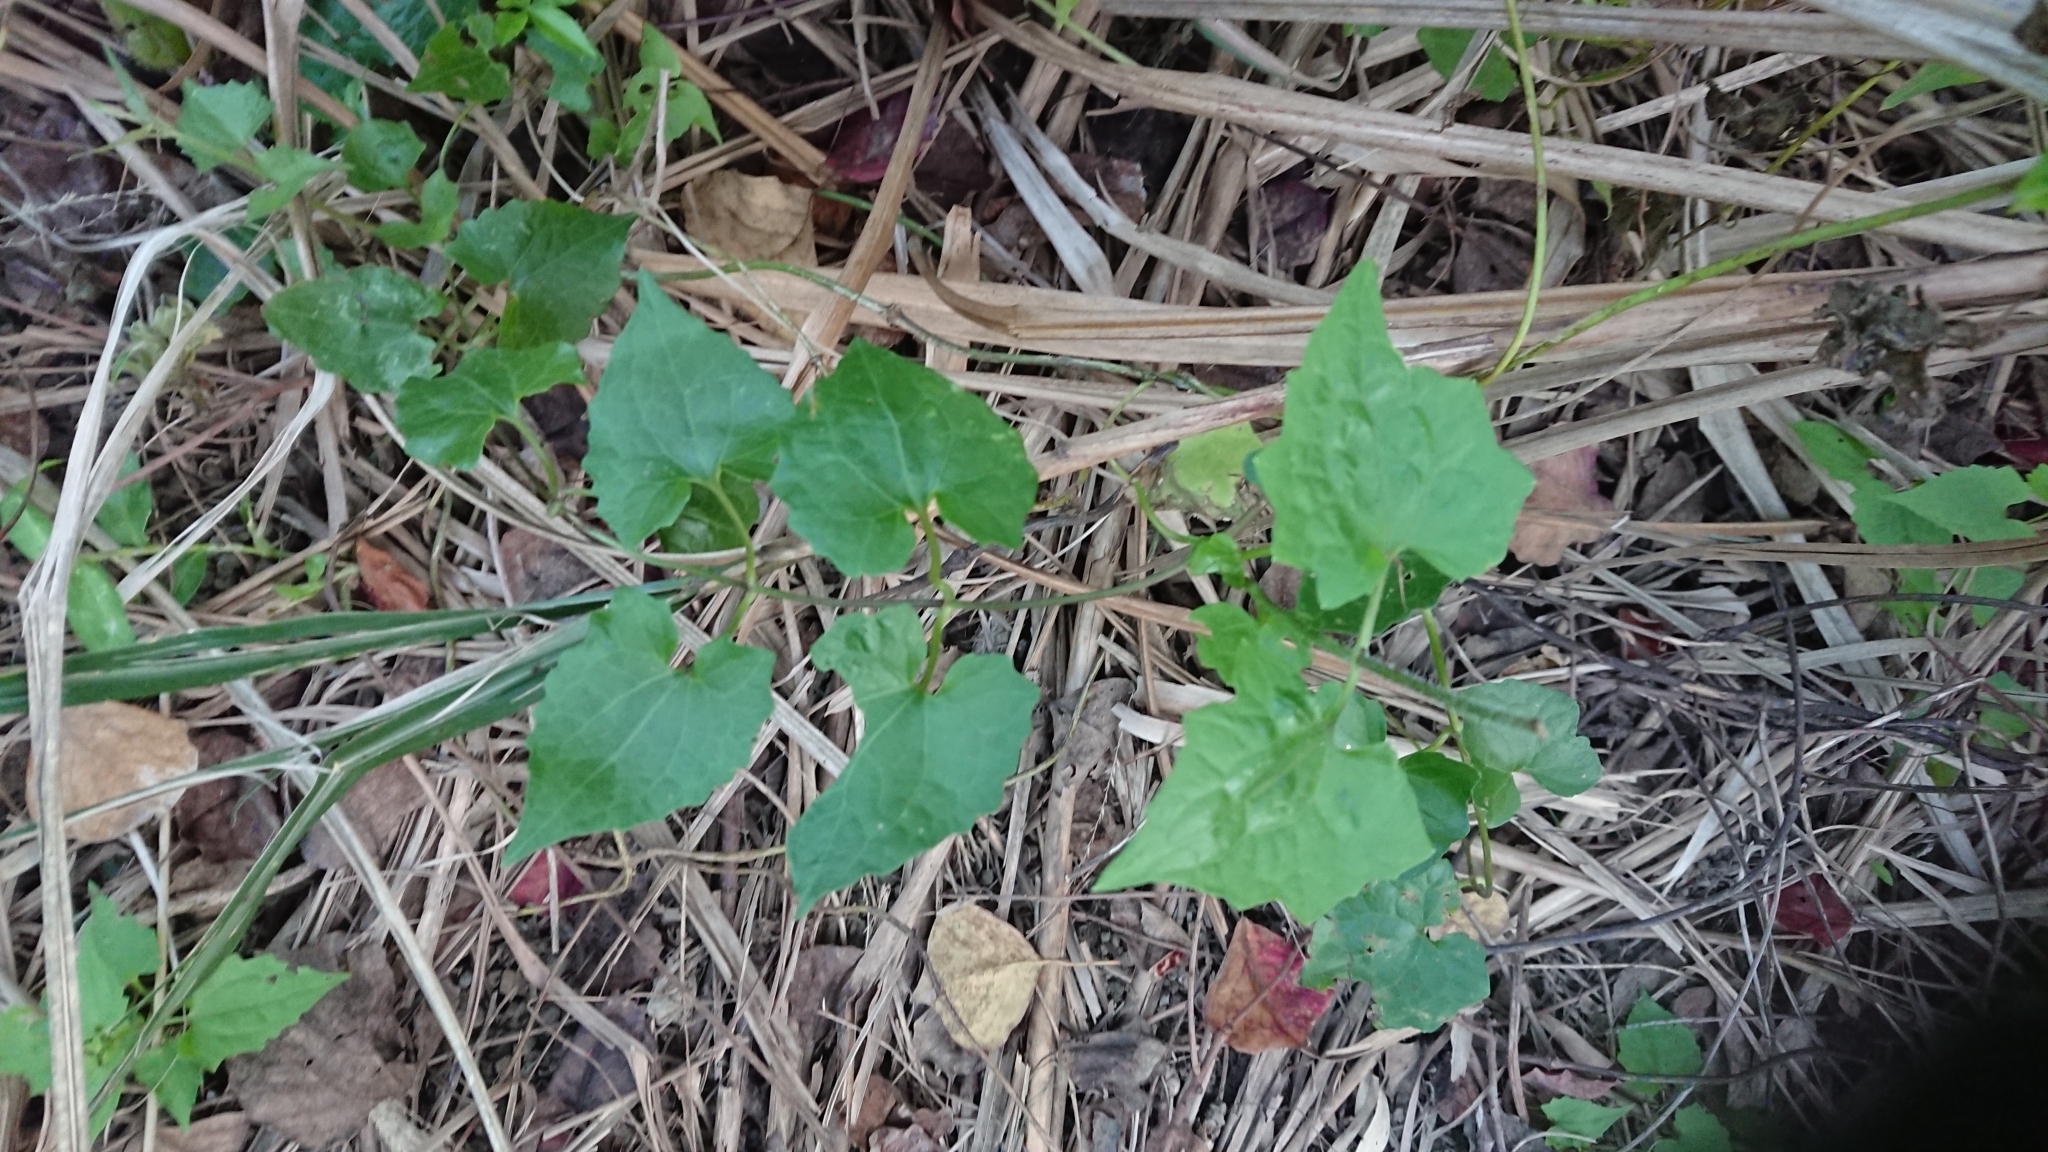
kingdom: Plantae
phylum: Tracheophyta
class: Magnoliopsida
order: Asterales
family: Asteraceae
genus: Mikania
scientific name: Mikania micrantha
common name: Mile-a-minute
